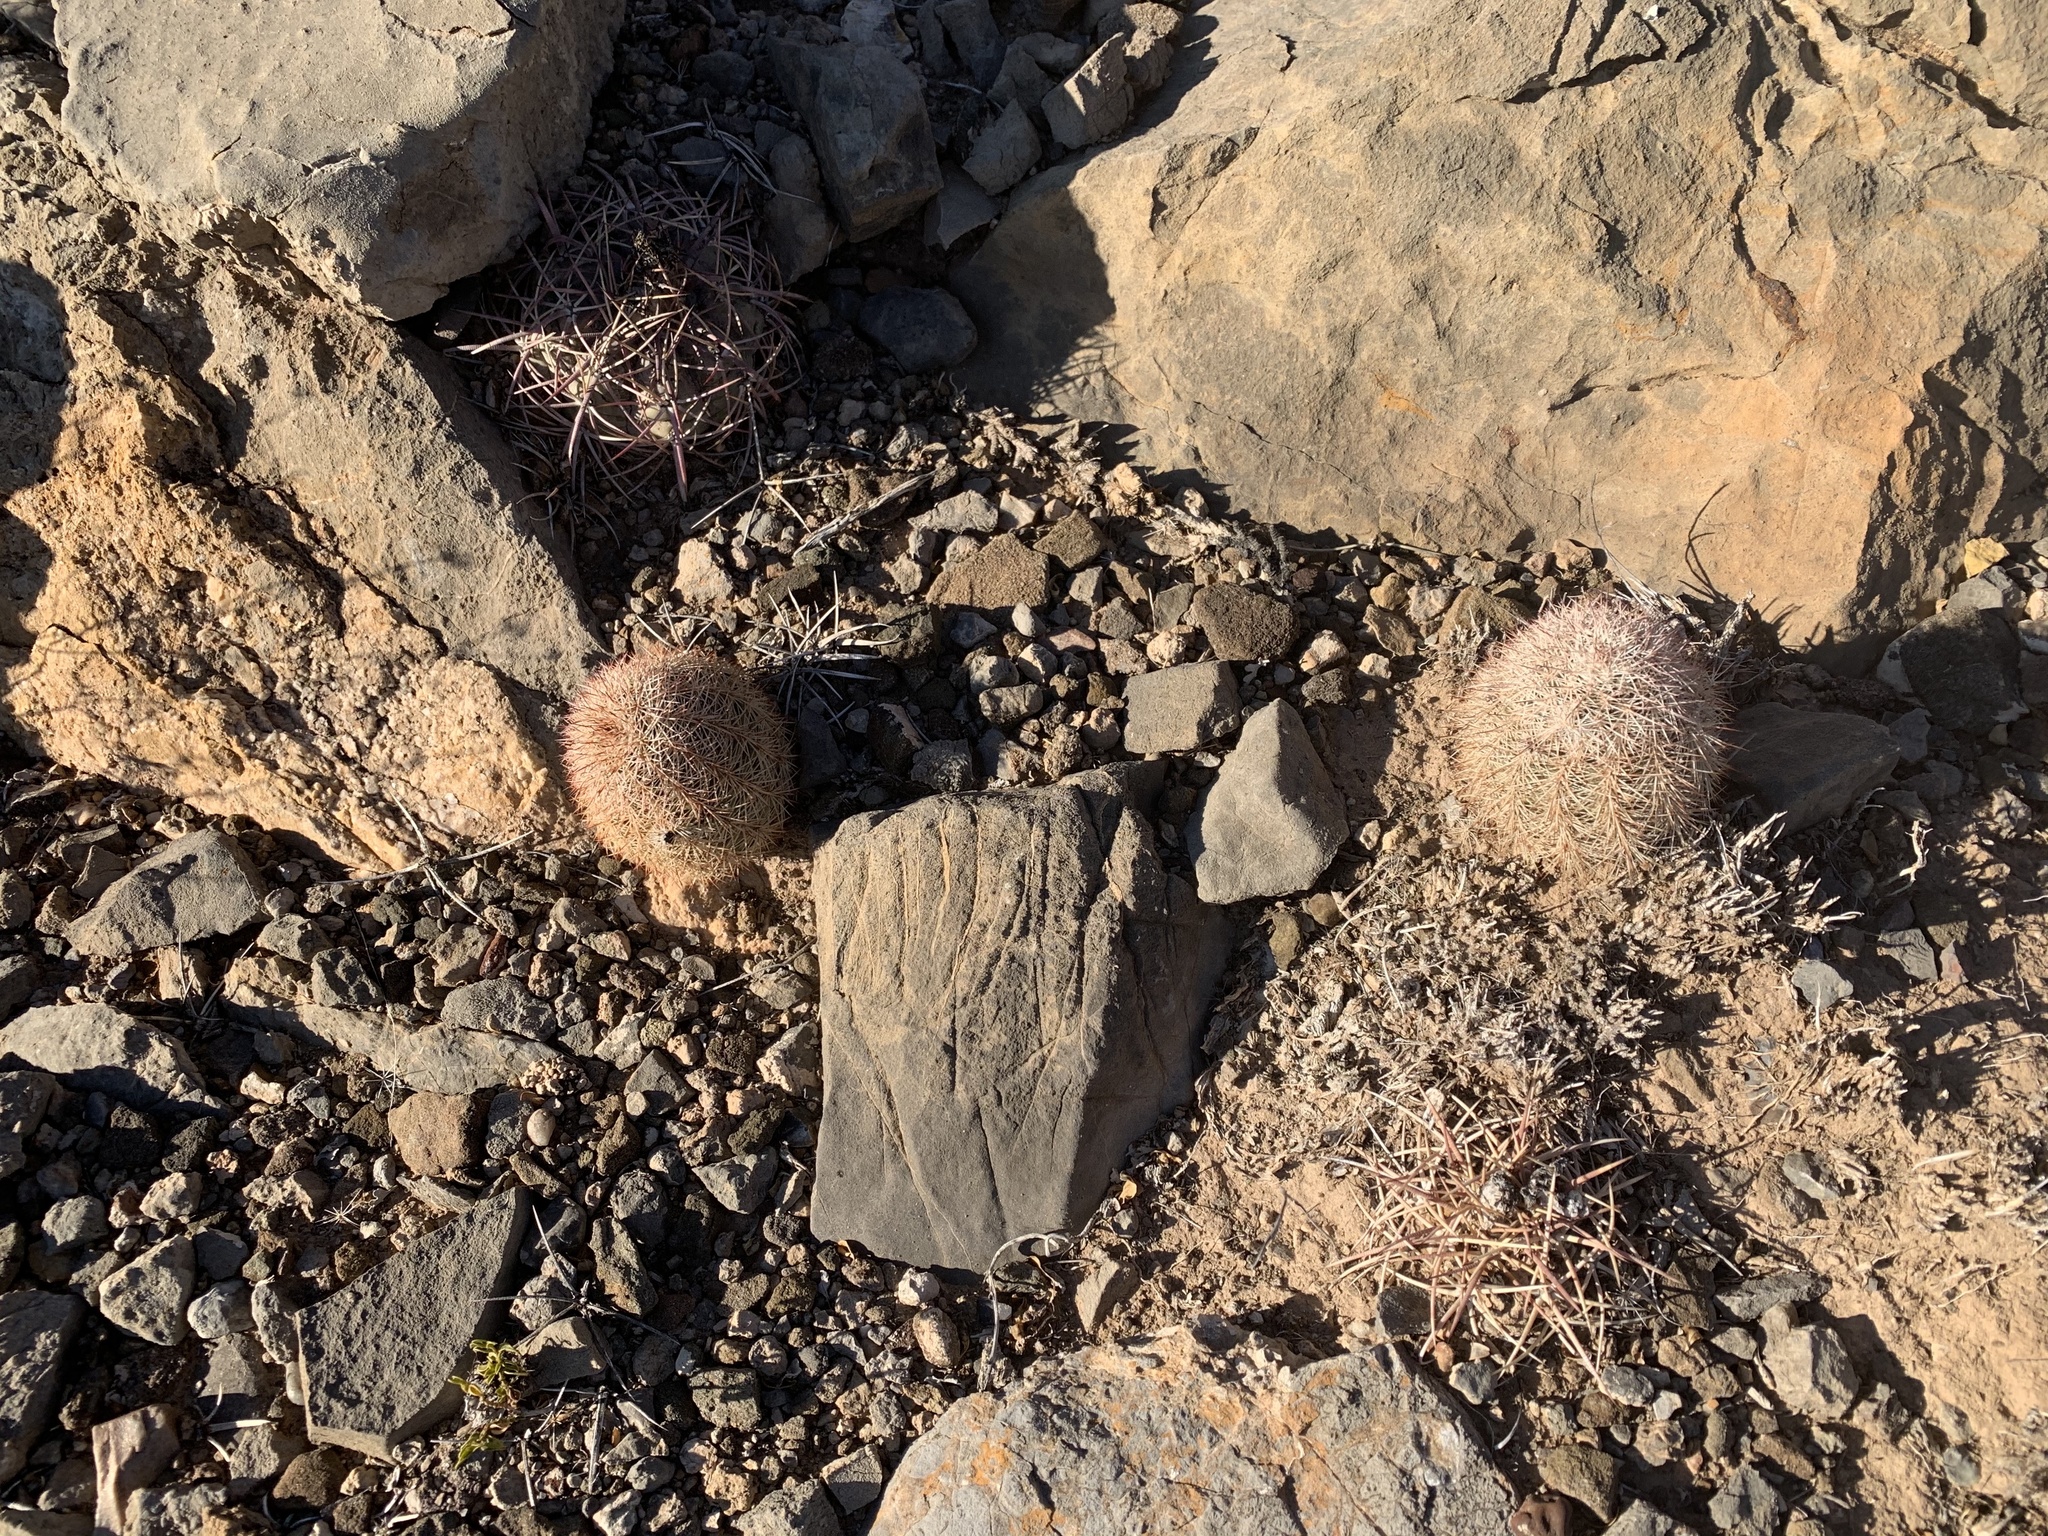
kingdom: Plantae
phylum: Tracheophyta
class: Magnoliopsida
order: Caryophyllales
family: Cactaceae
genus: Echinocereus
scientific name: Echinocereus dasyacanthus
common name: Spiny hedgehog cactus
